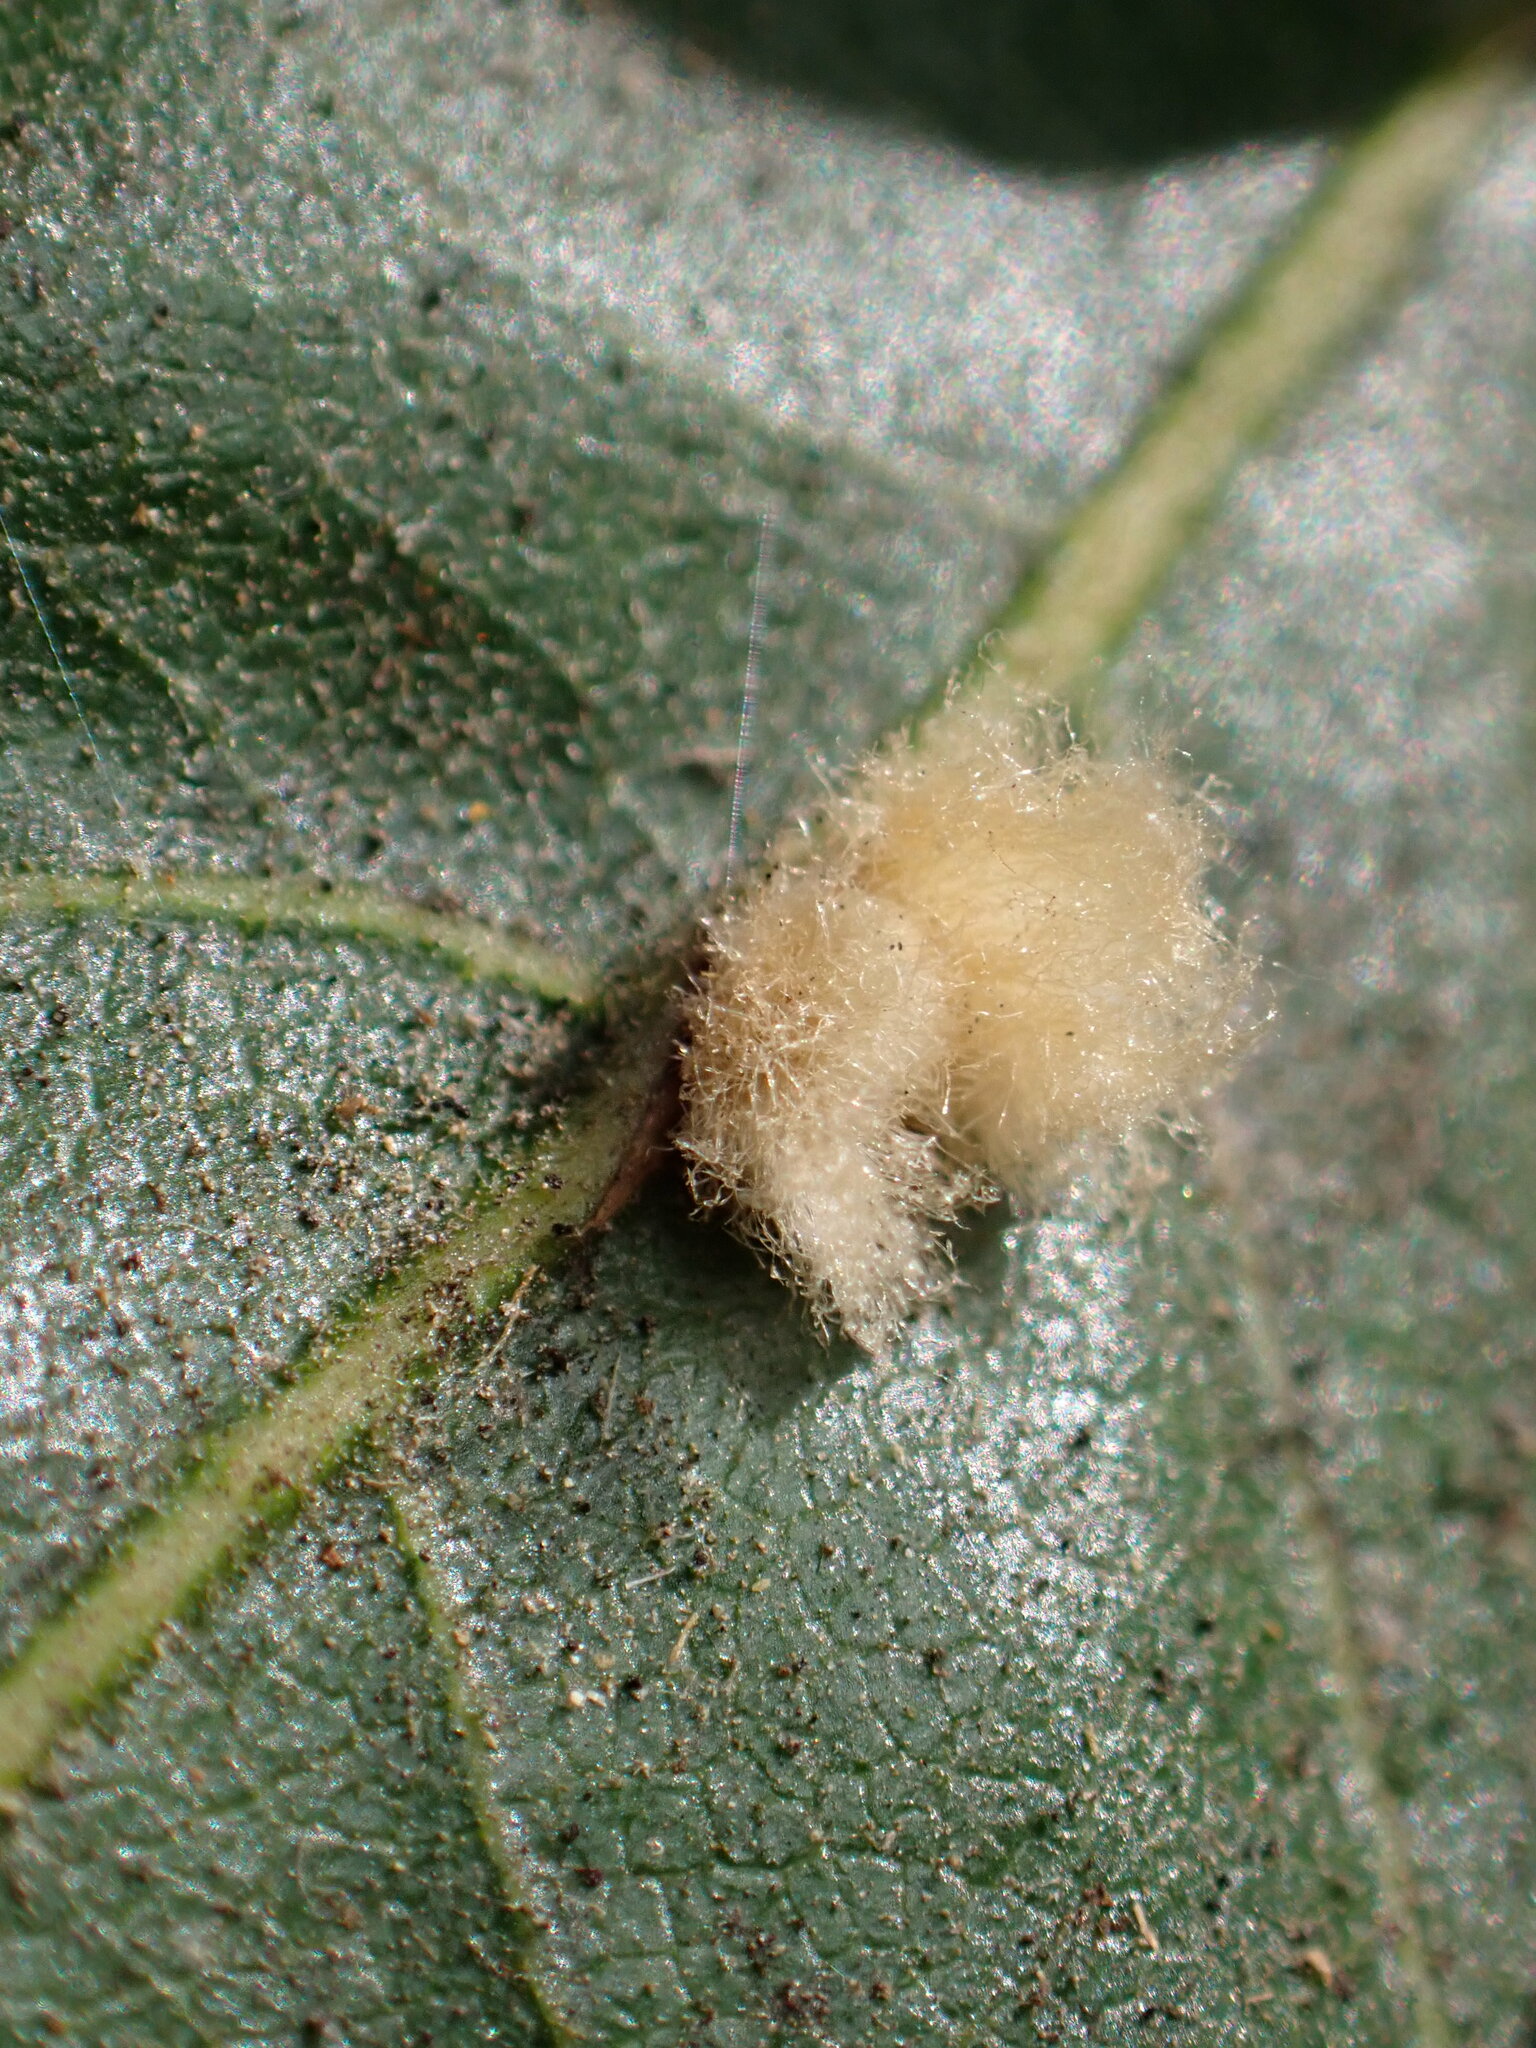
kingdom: Animalia
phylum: Arthropoda
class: Insecta
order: Hymenoptera
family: Cynipidae
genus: Andricus
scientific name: Andricus Druon fullawayi
